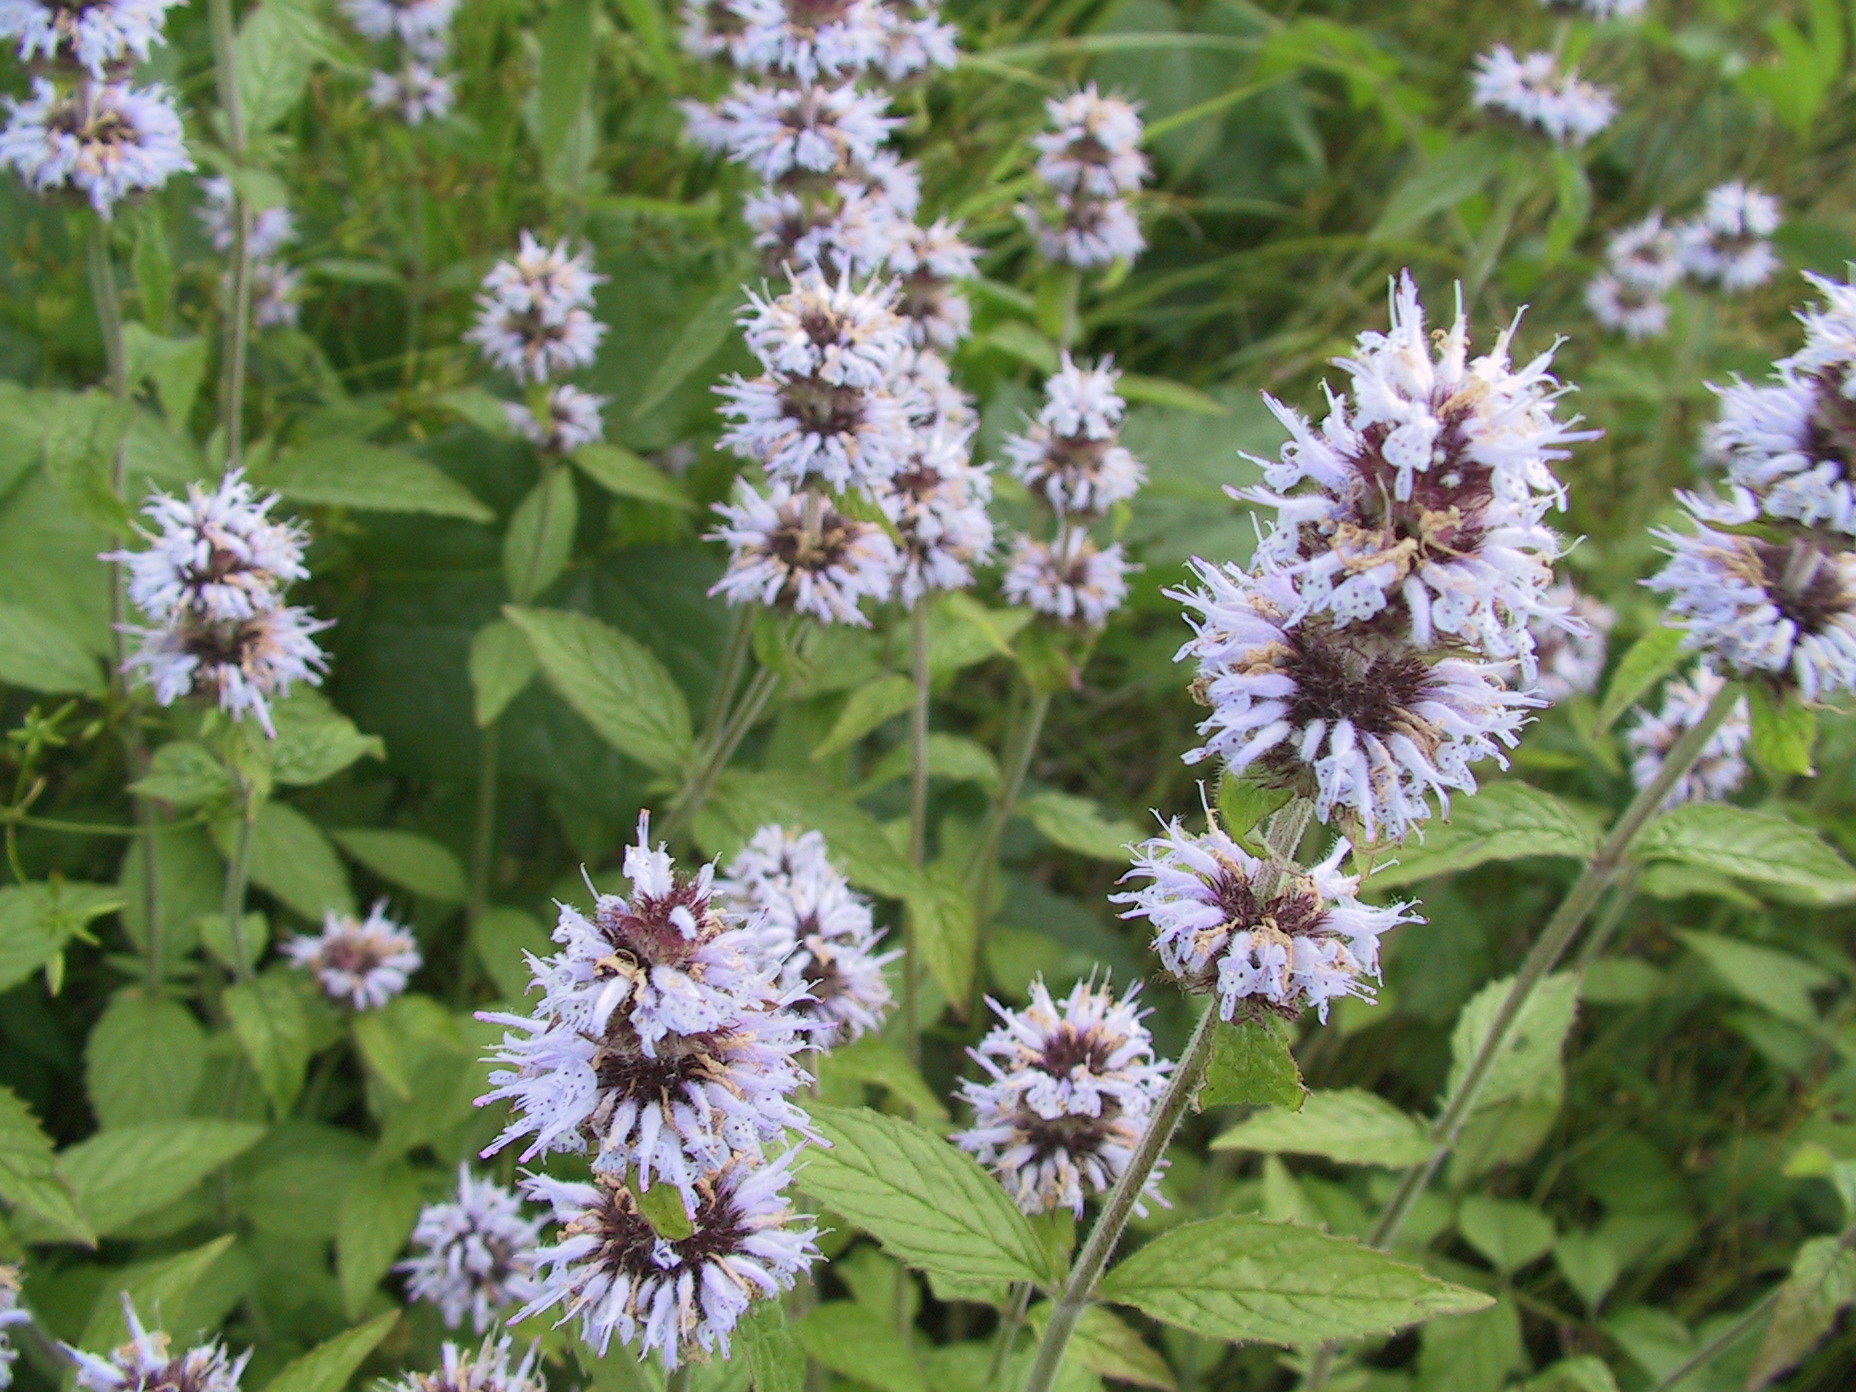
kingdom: Plantae
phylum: Tracheophyta
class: Magnoliopsida
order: Lamiales
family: Lamiaceae
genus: Blephilia
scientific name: Blephilia ciliata
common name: Downy blephilia
